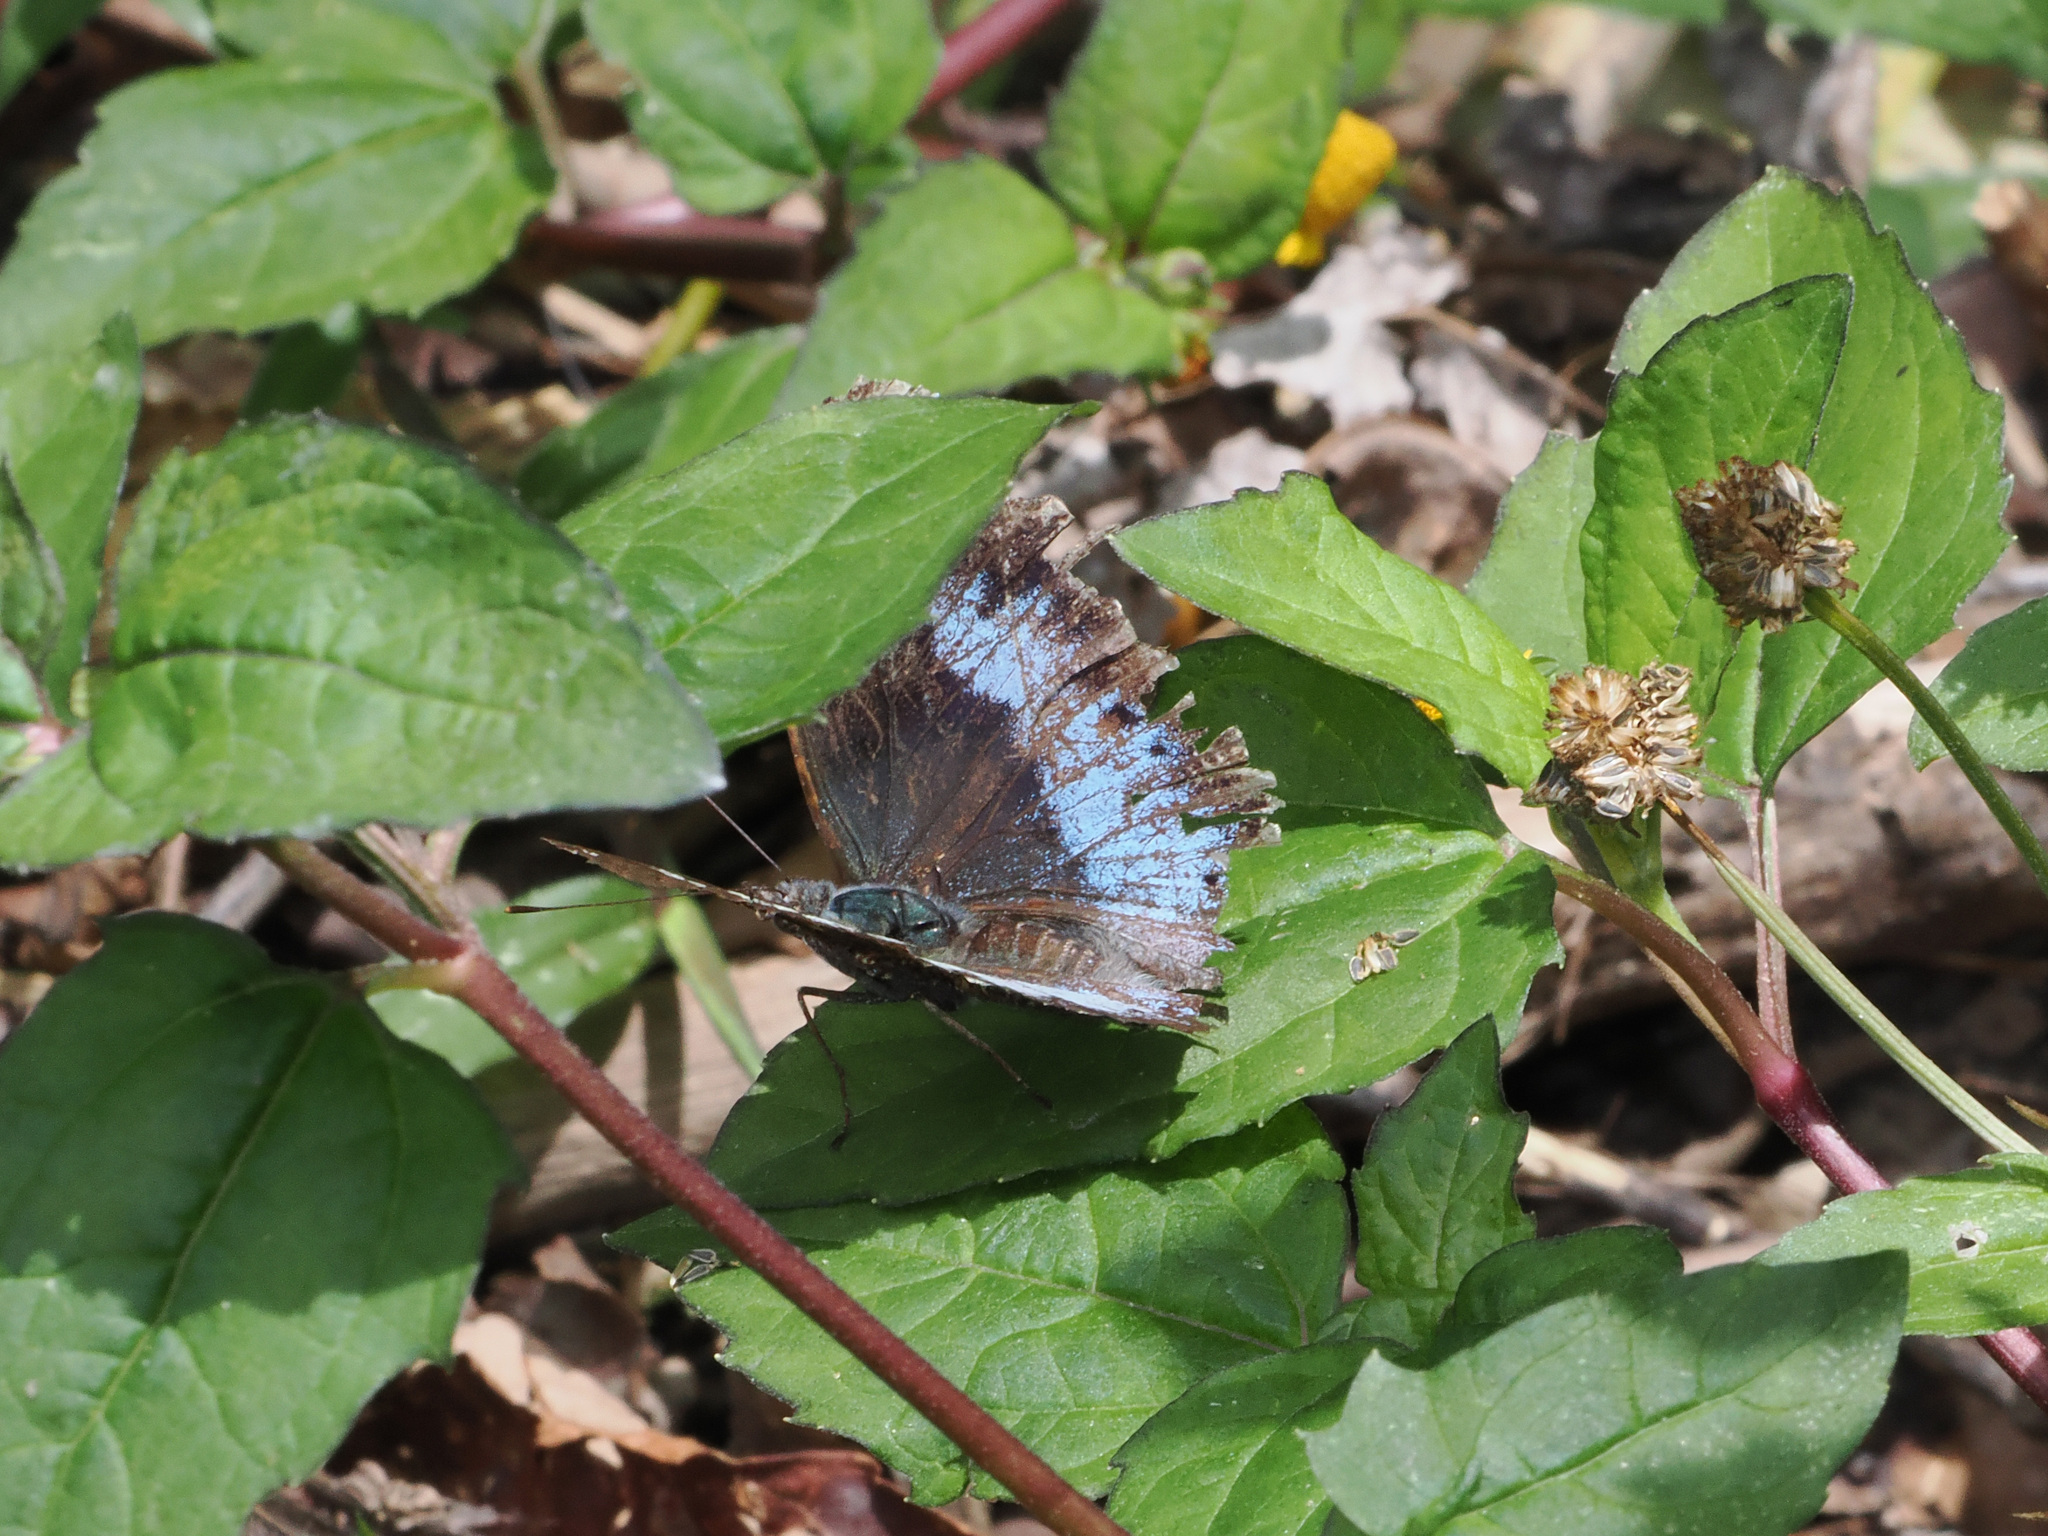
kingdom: Animalia
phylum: Arthropoda
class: Insecta
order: Lepidoptera
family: Nymphalidae
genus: Vanessa
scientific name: Vanessa Kaniska canace
